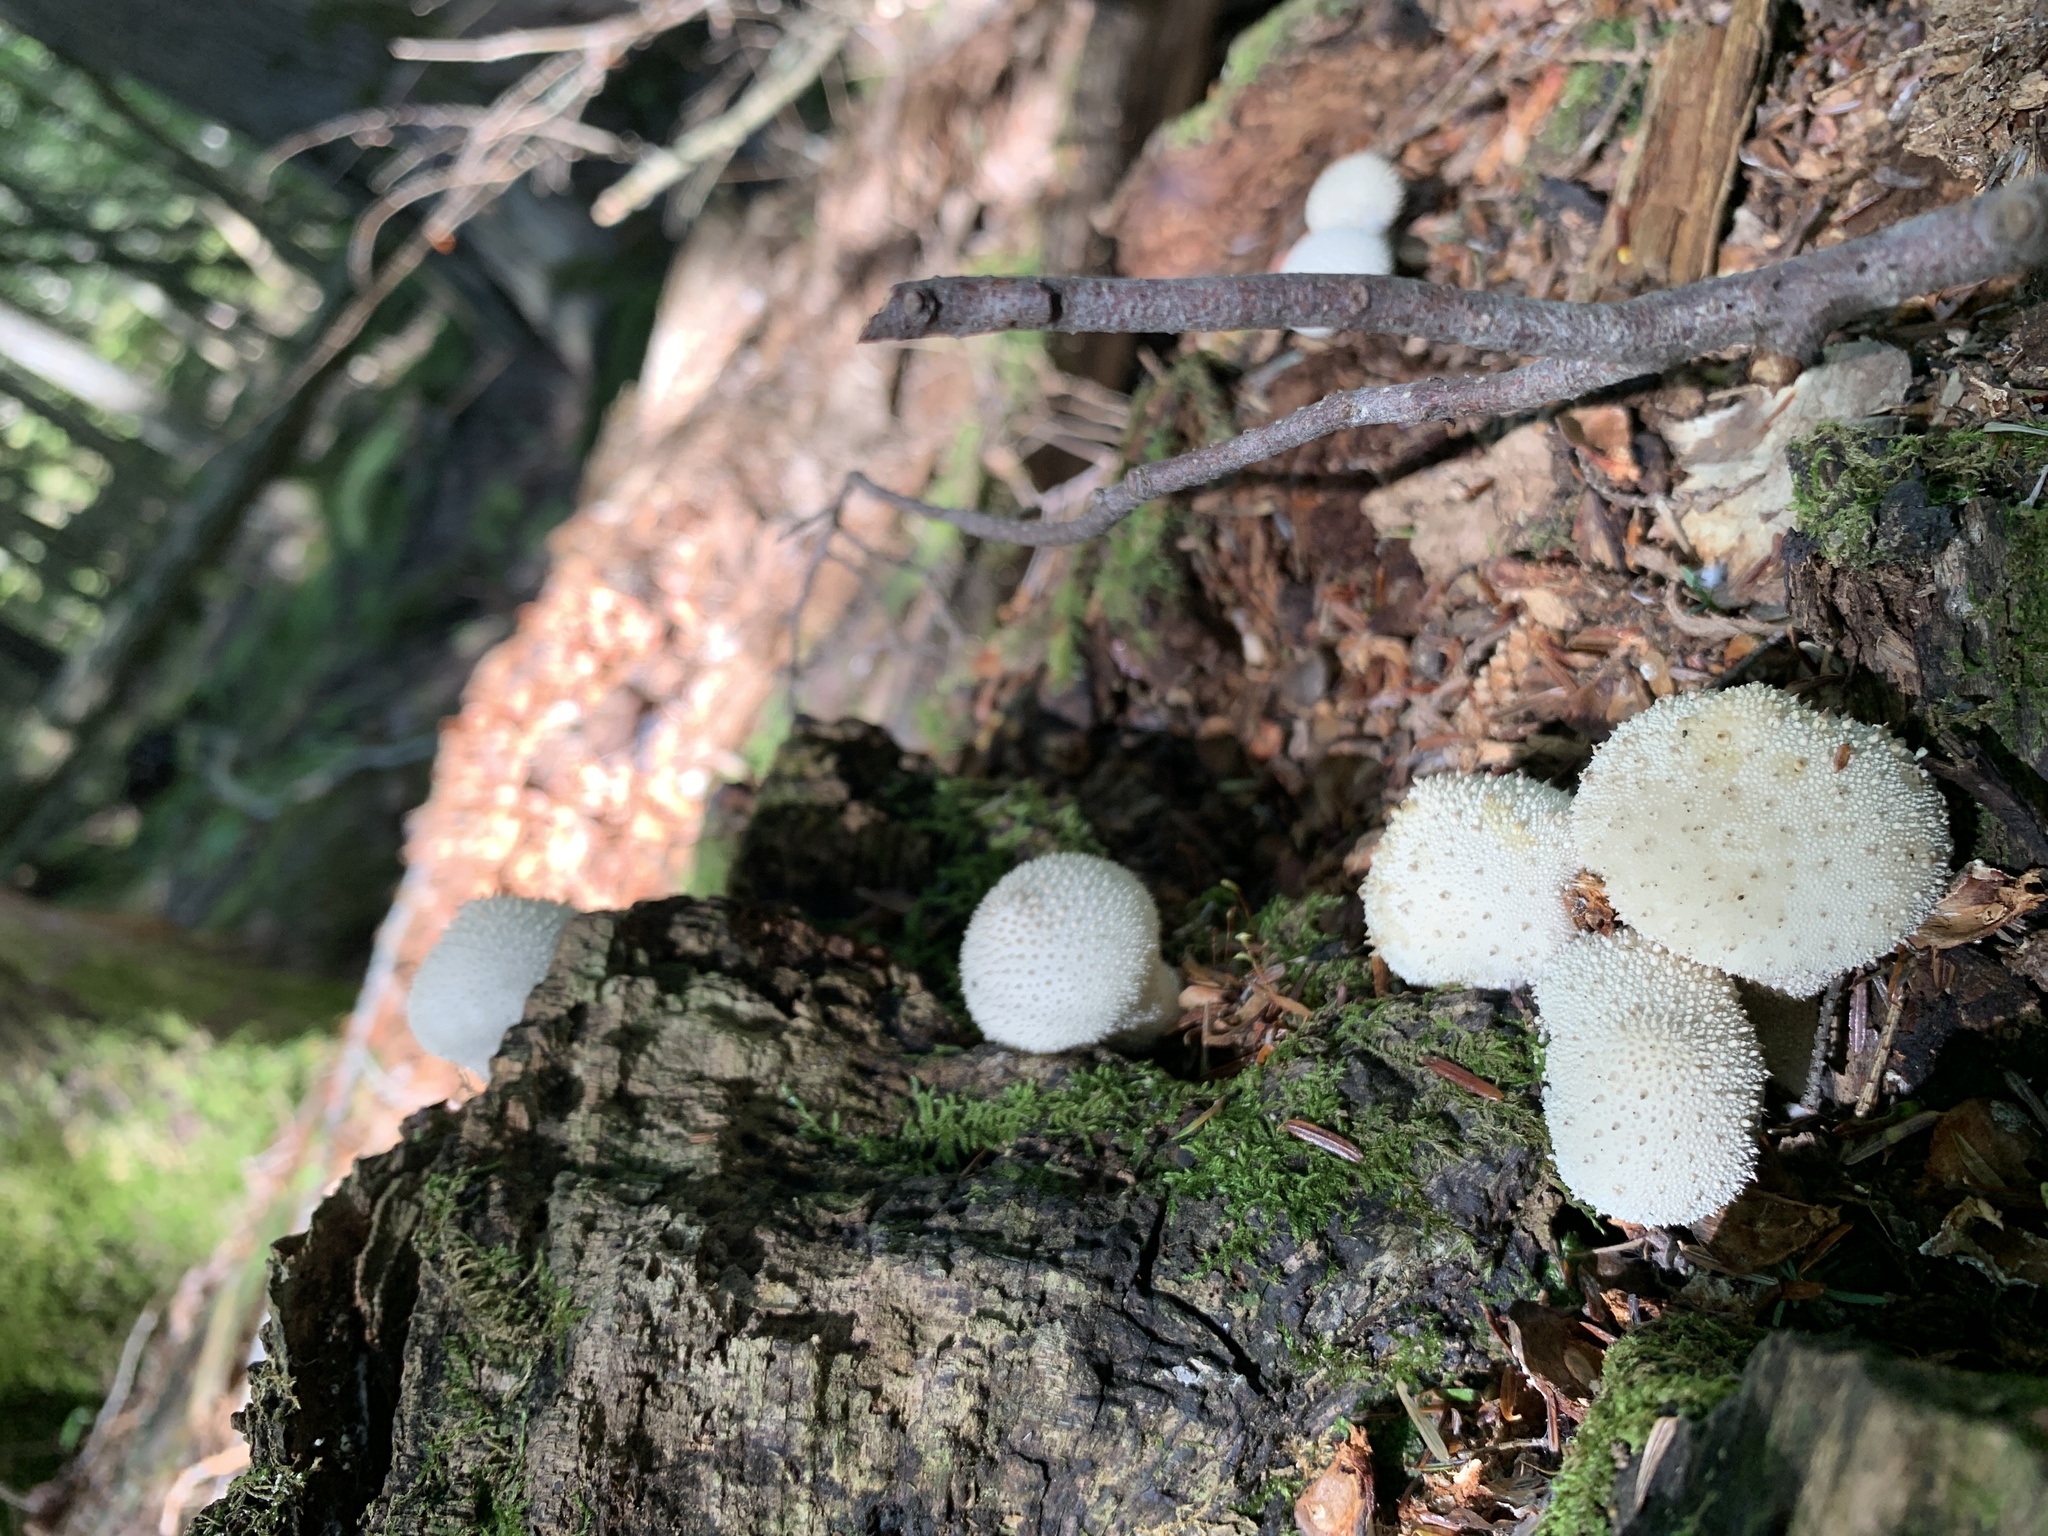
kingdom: Fungi
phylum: Basidiomycota
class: Agaricomycetes
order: Agaricales
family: Agaricaceae
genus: Lycoperdon
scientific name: Lycoperdon marginatum
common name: Peeling puffball
